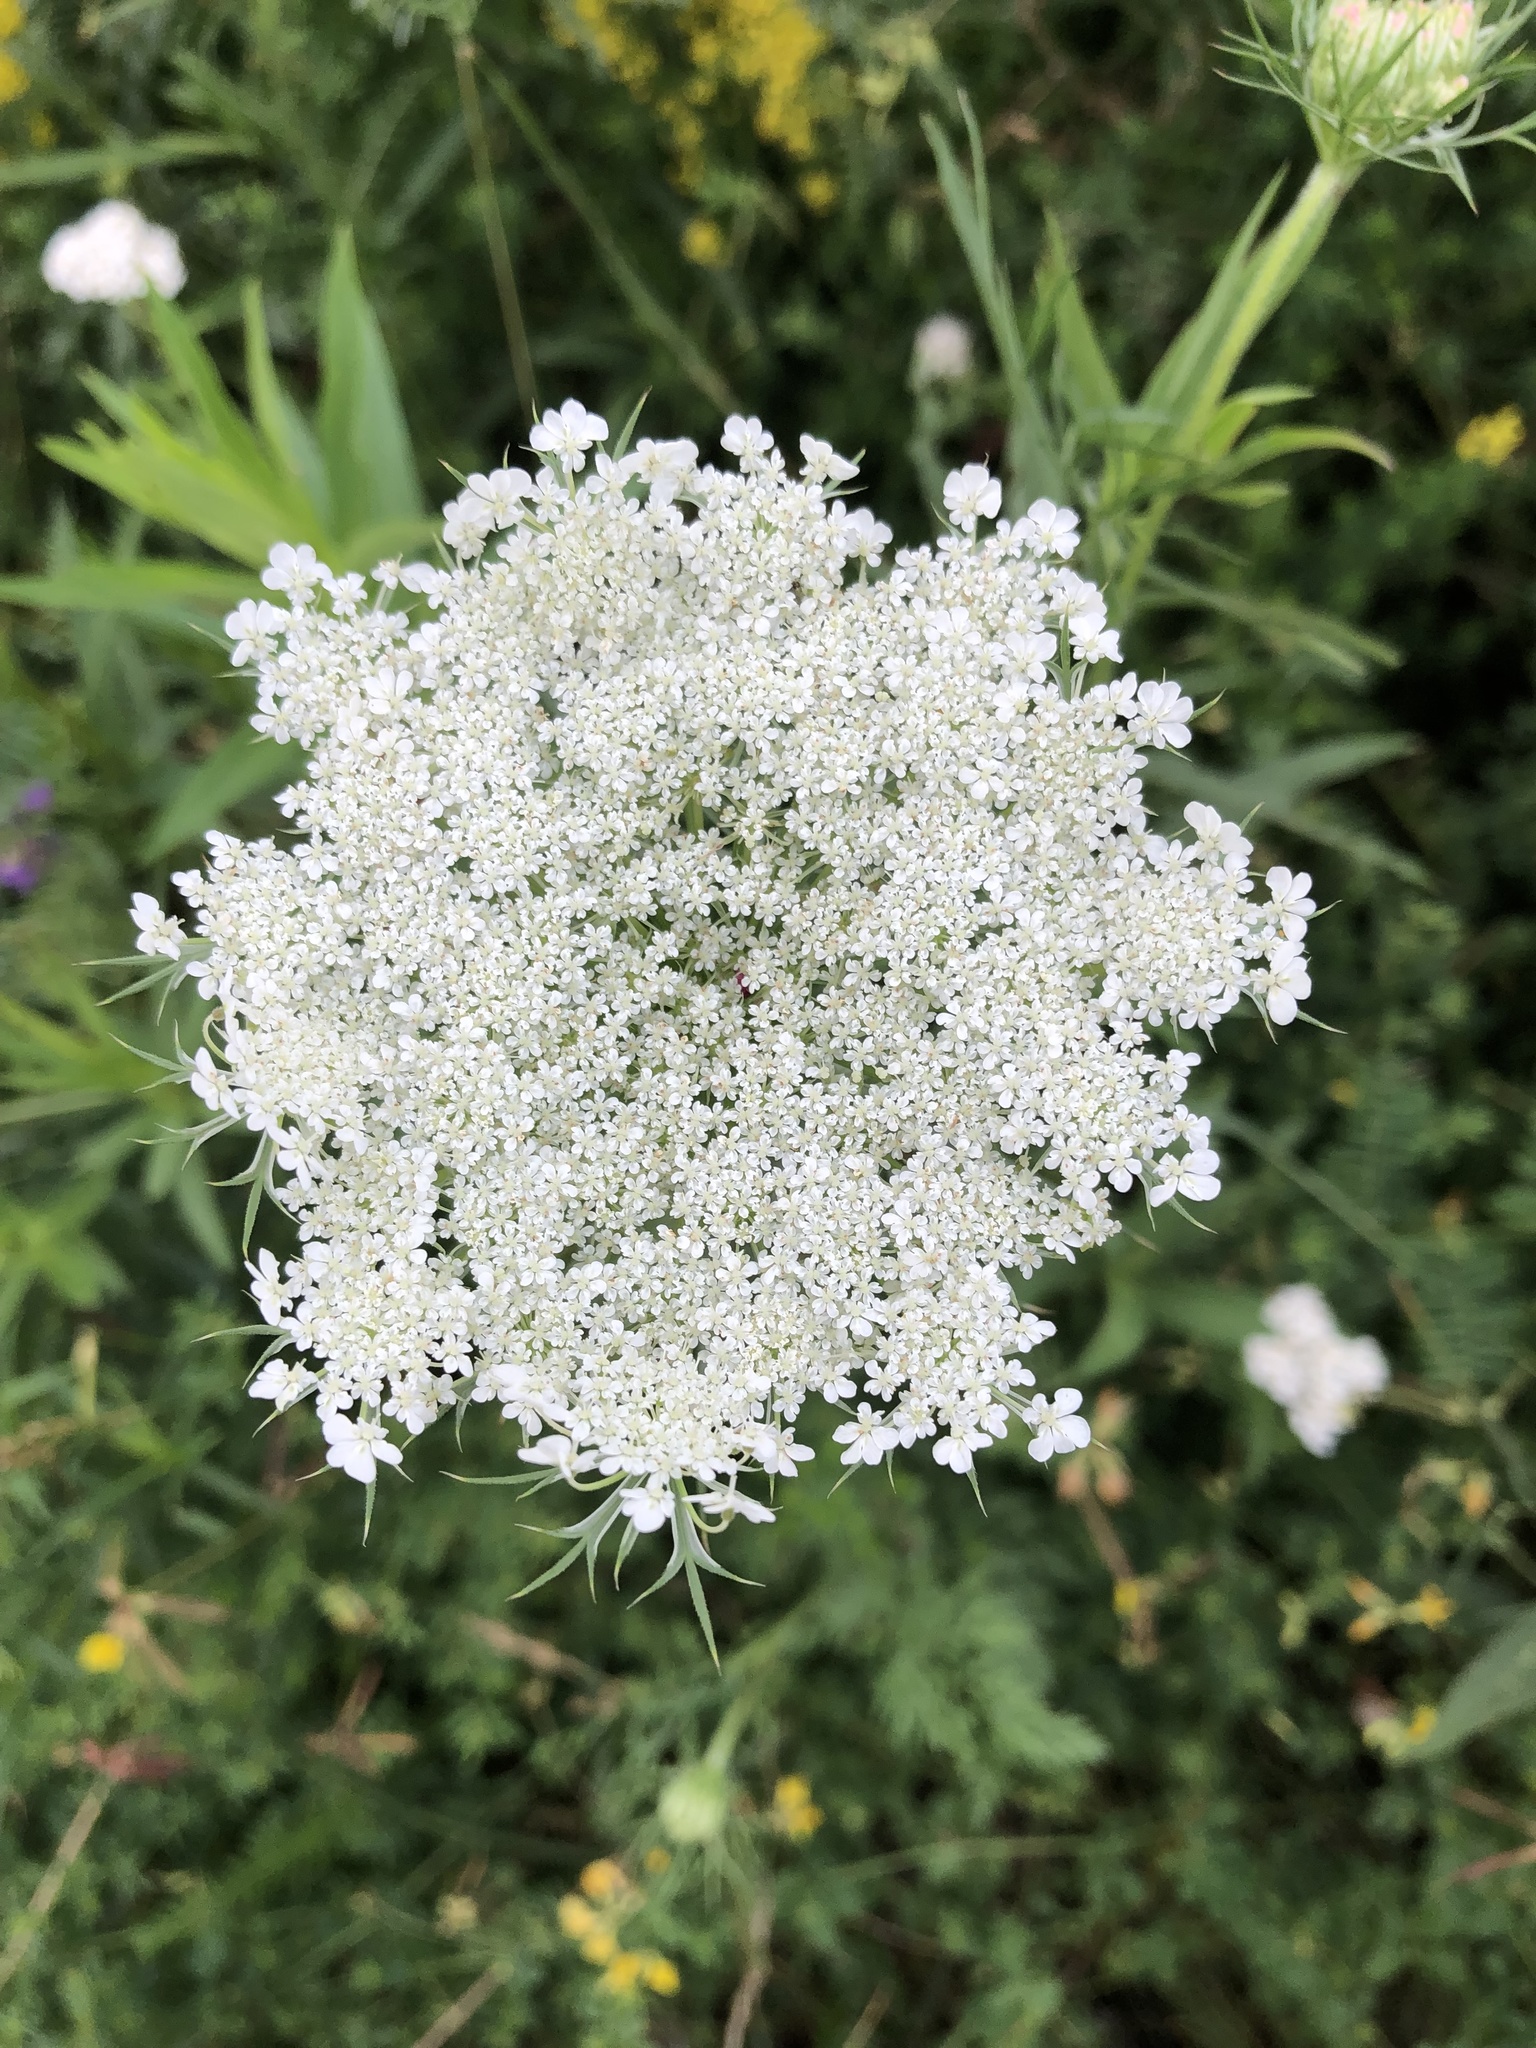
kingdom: Plantae
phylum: Tracheophyta
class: Magnoliopsida
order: Apiales
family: Apiaceae
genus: Daucus
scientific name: Daucus carota
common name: Wild carrot
